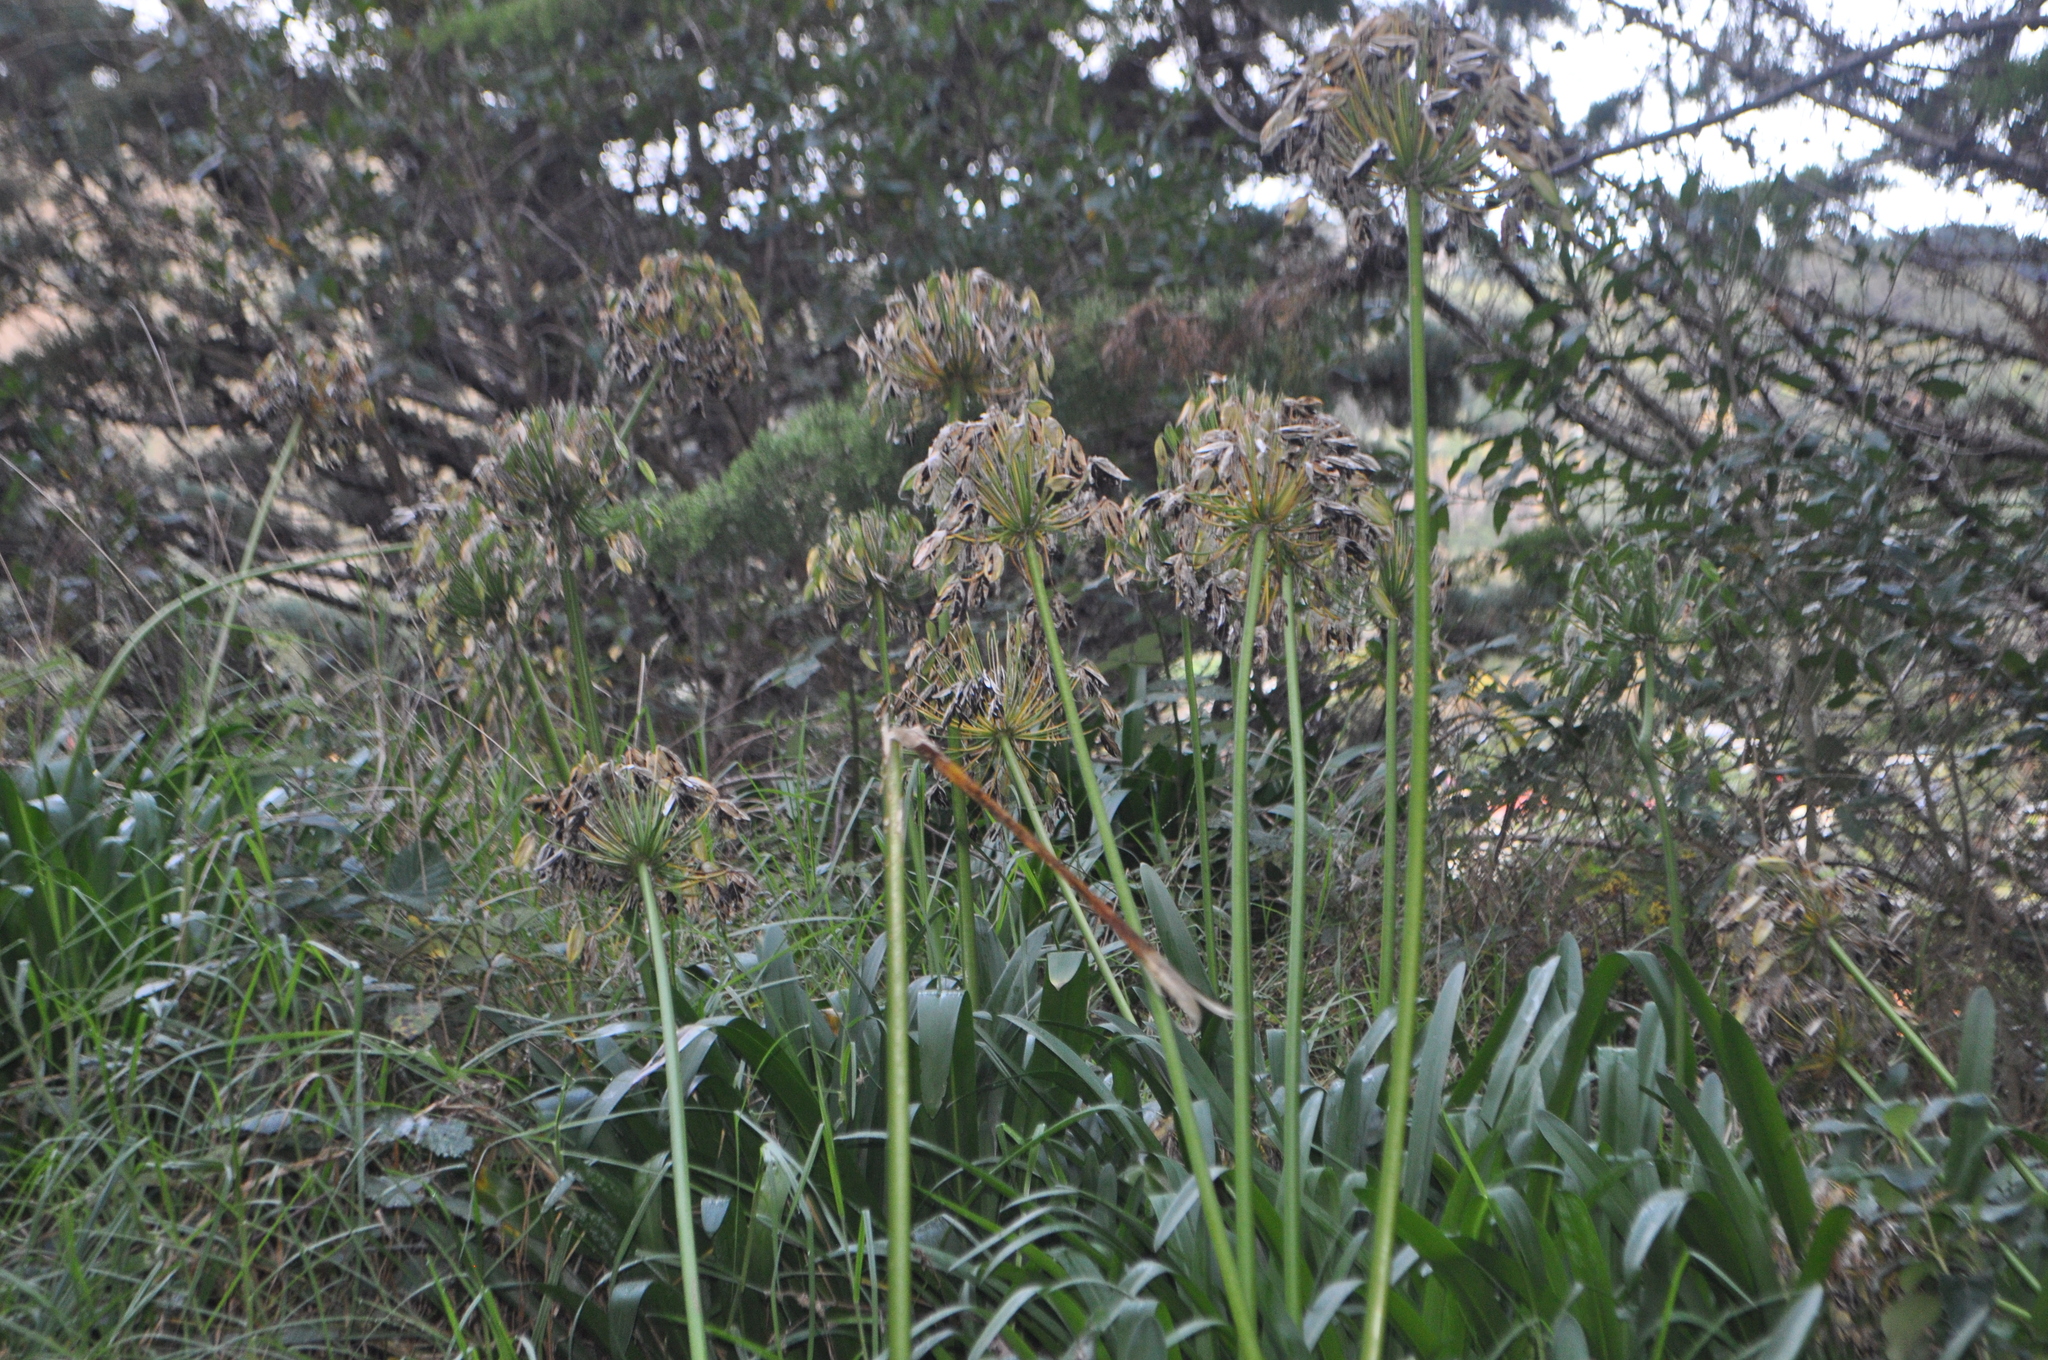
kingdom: Plantae
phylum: Tracheophyta
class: Liliopsida
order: Asparagales
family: Amaryllidaceae
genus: Agapanthus
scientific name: Agapanthus praecox
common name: African-lily
